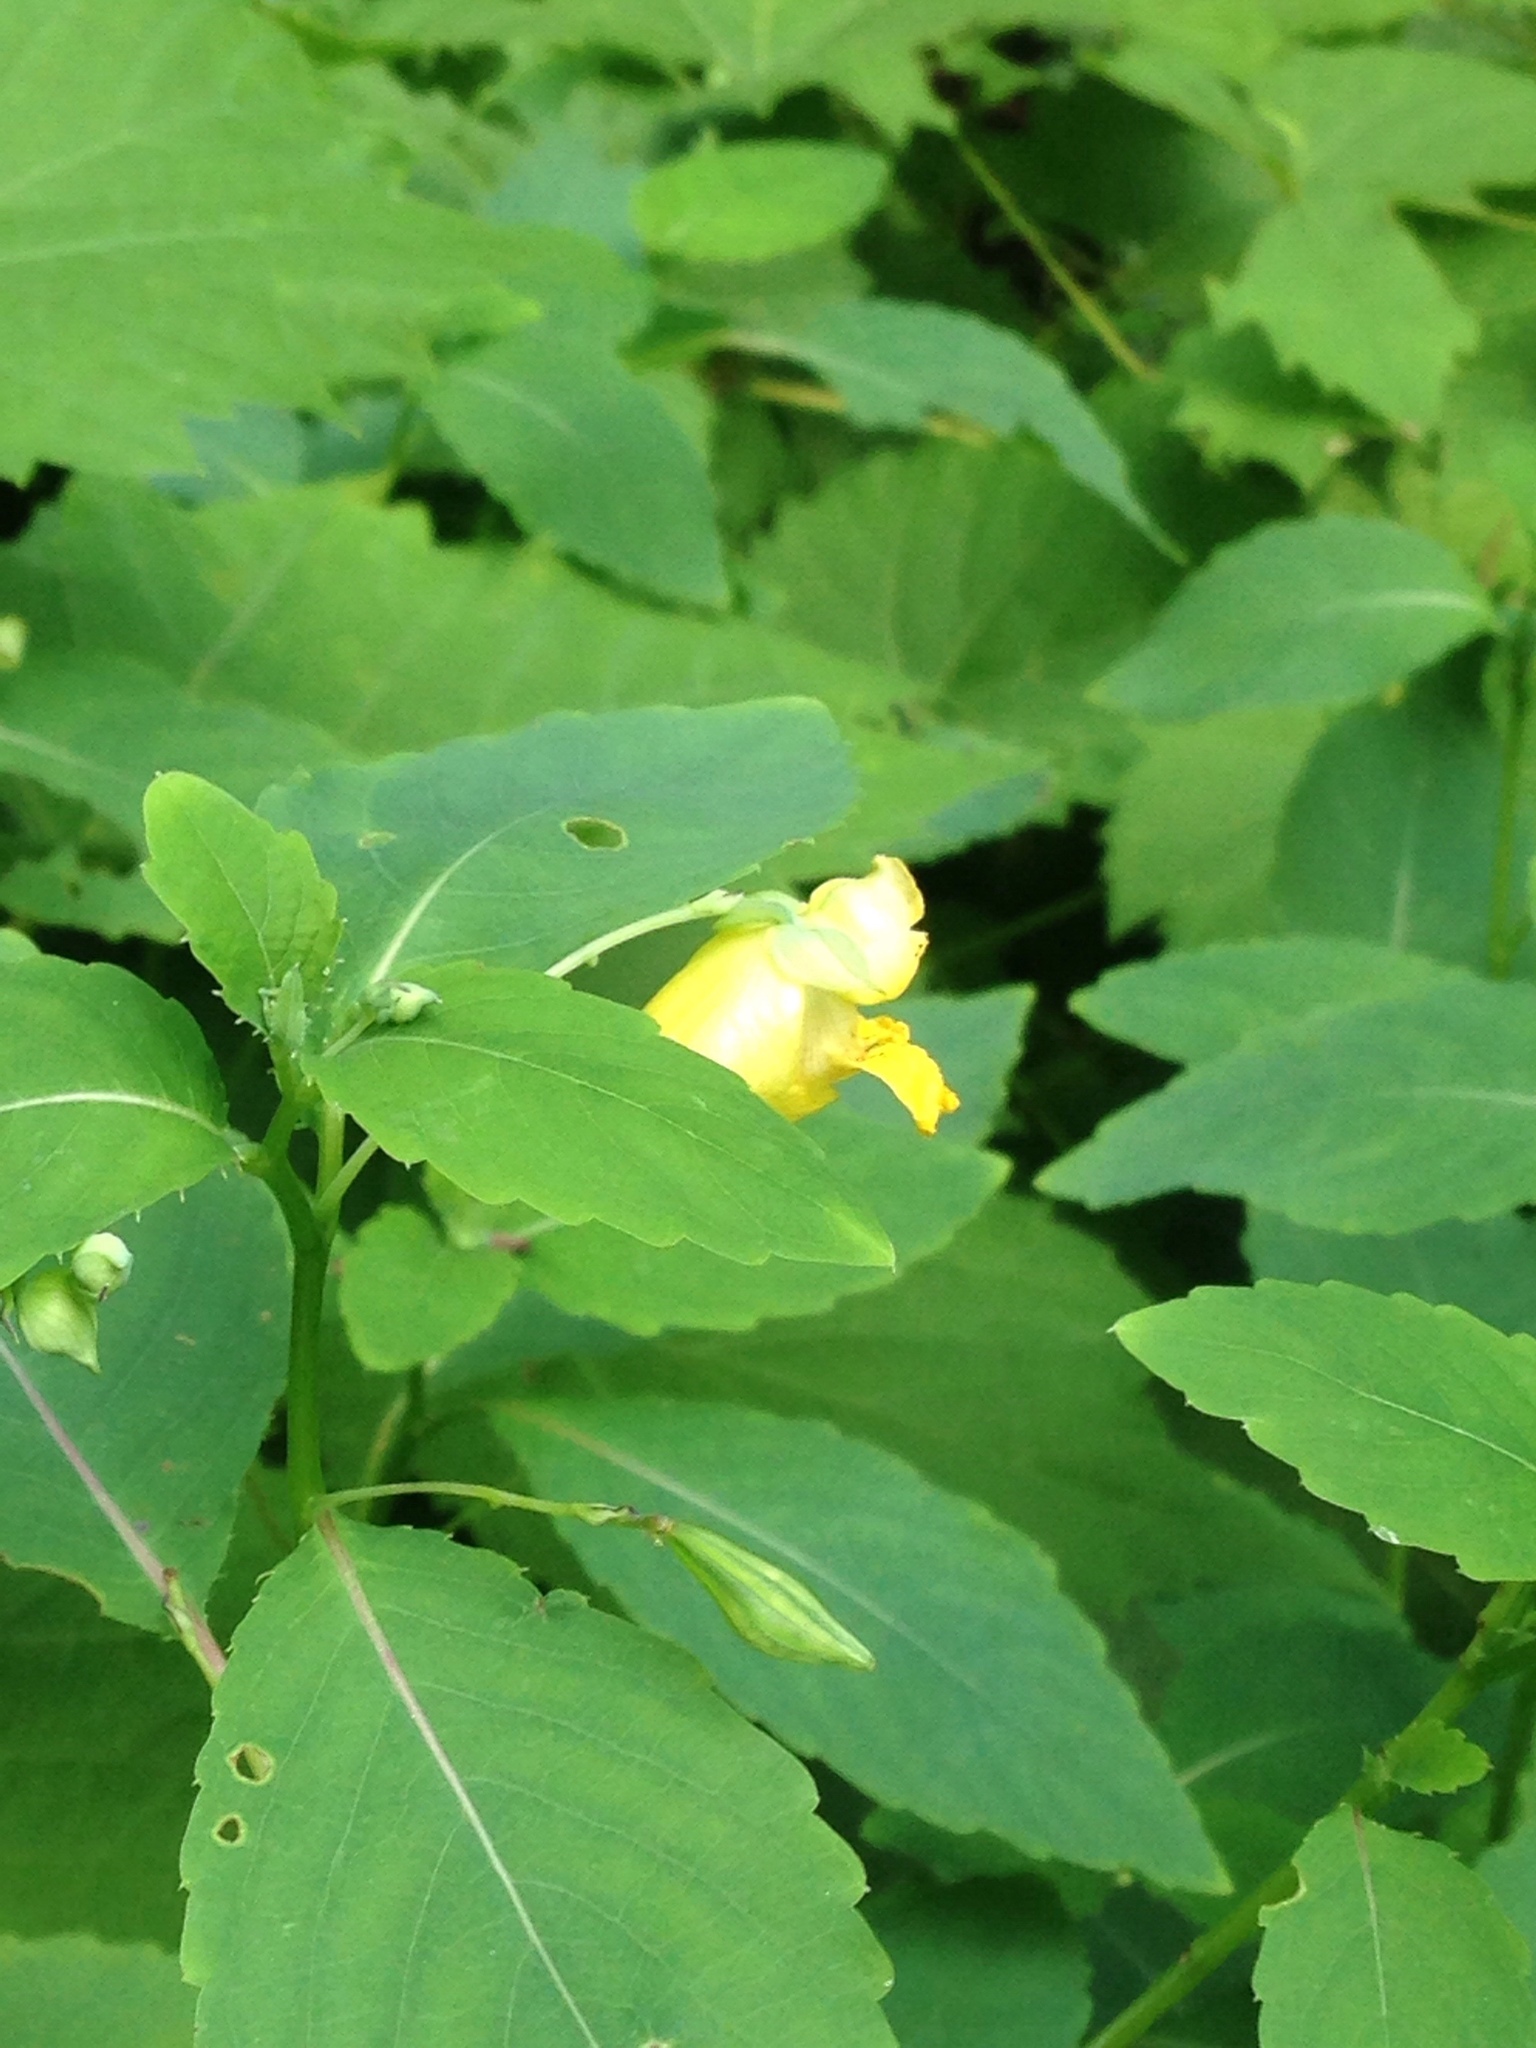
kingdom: Plantae
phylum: Tracheophyta
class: Magnoliopsida
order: Ericales
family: Balsaminaceae
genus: Impatiens
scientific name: Impatiens pallida
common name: Pale snapweed
